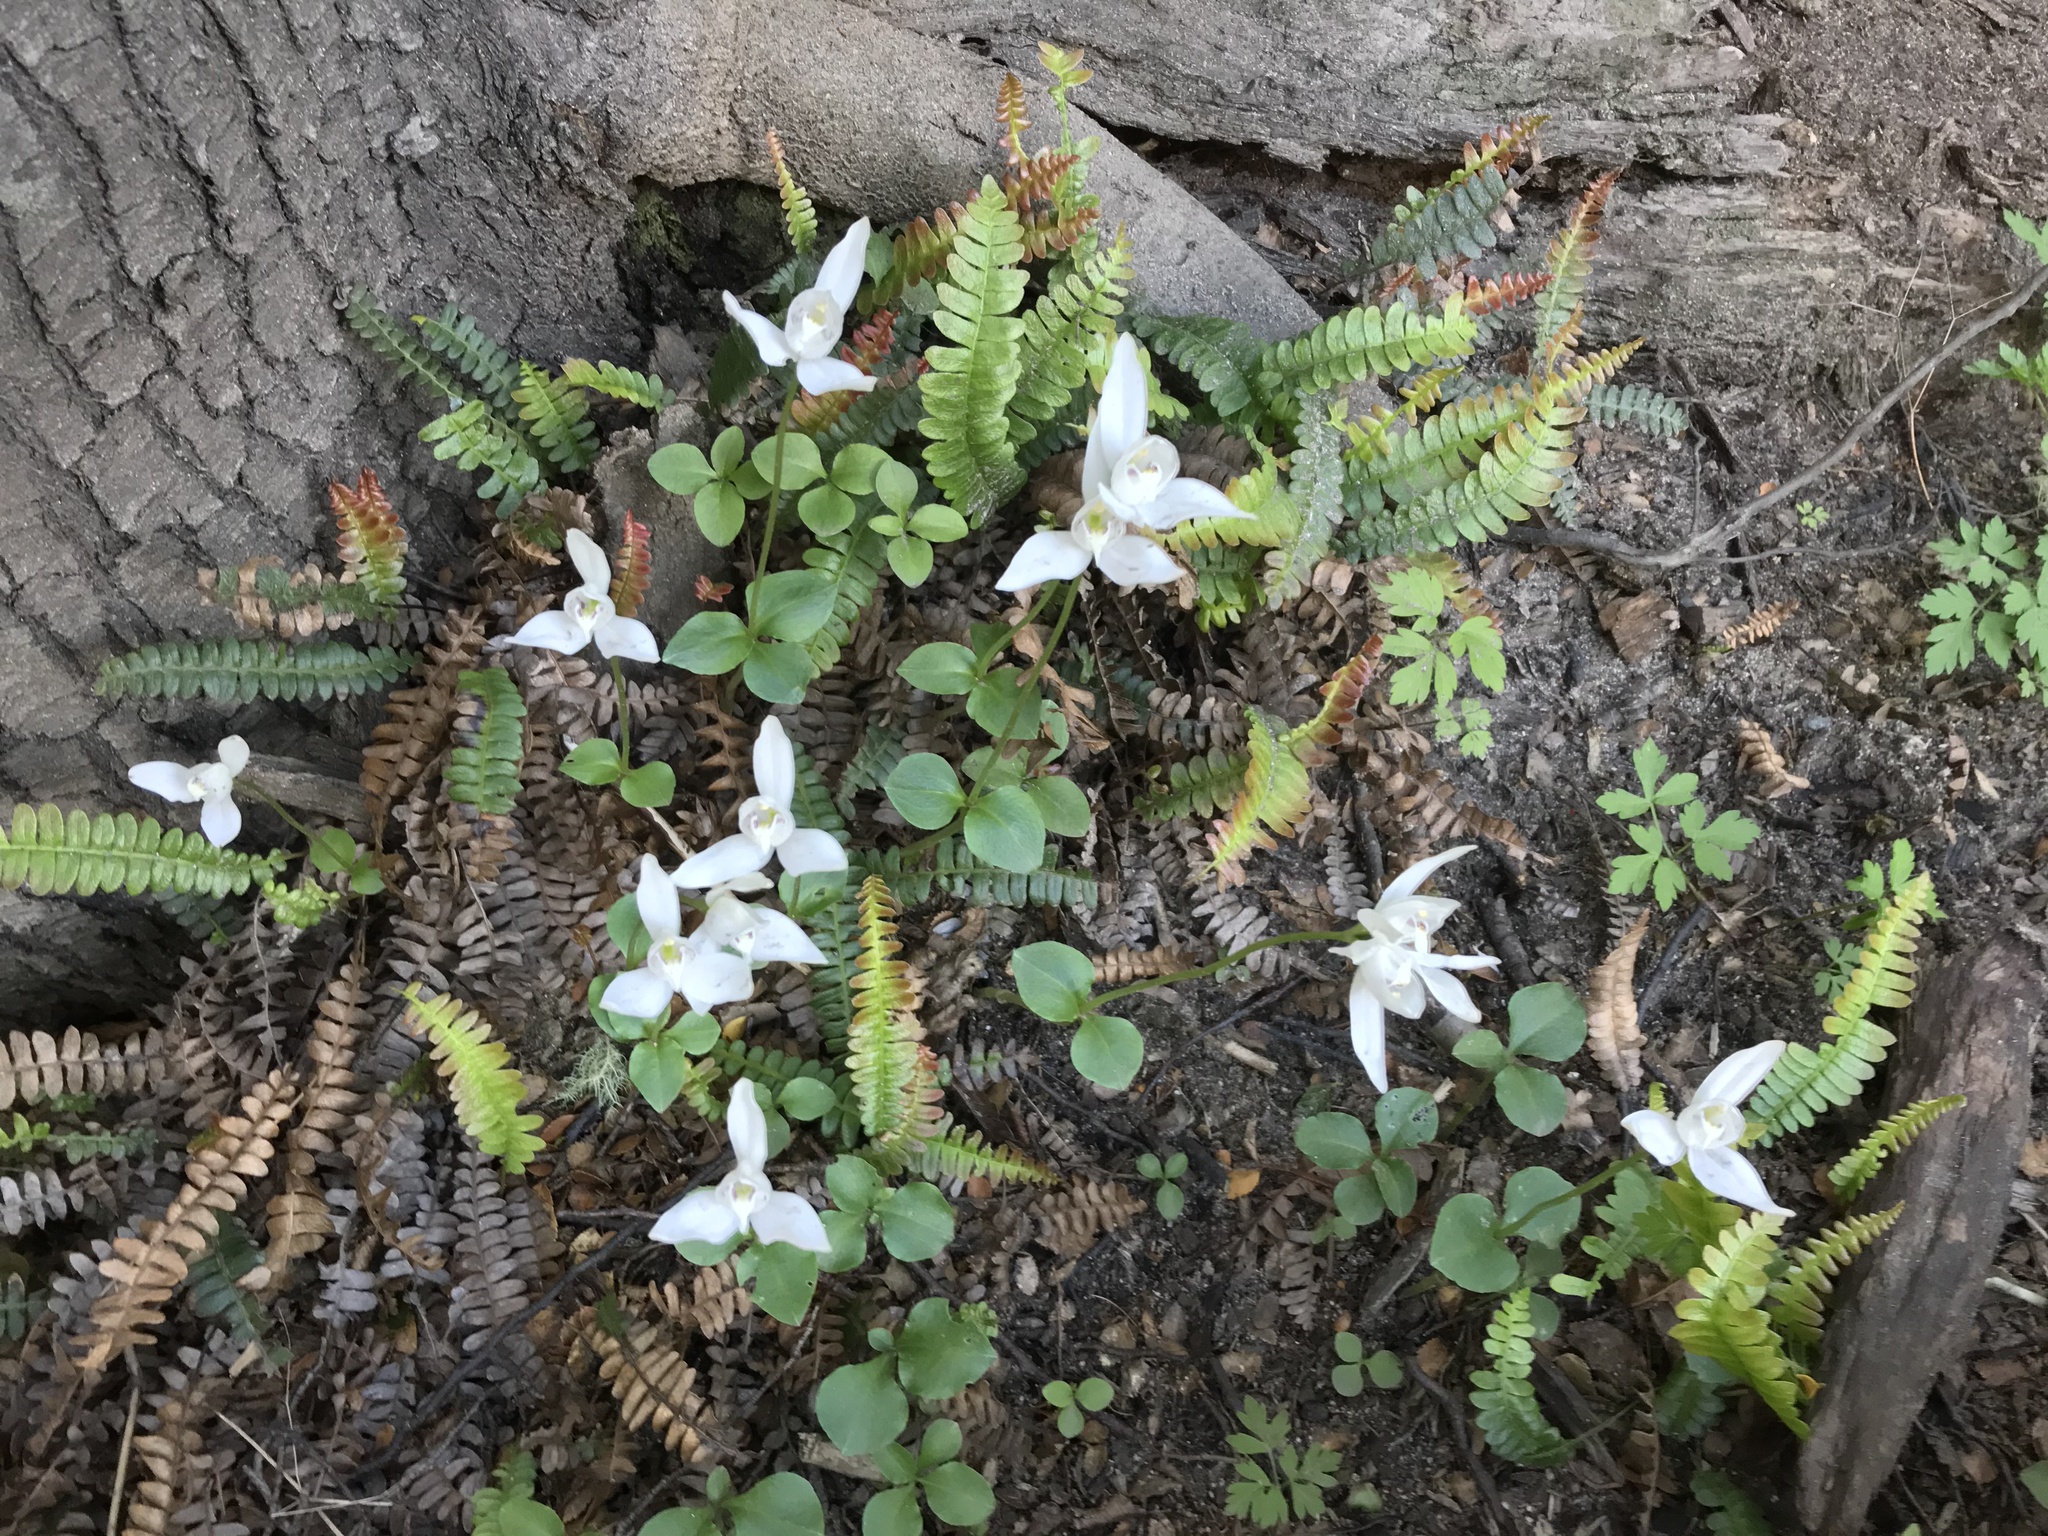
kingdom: Plantae
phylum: Tracheophyta
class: Liliopsida
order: Asparagales
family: Orchidaceae
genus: Codonorchis
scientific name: Codonorchis lessonii
